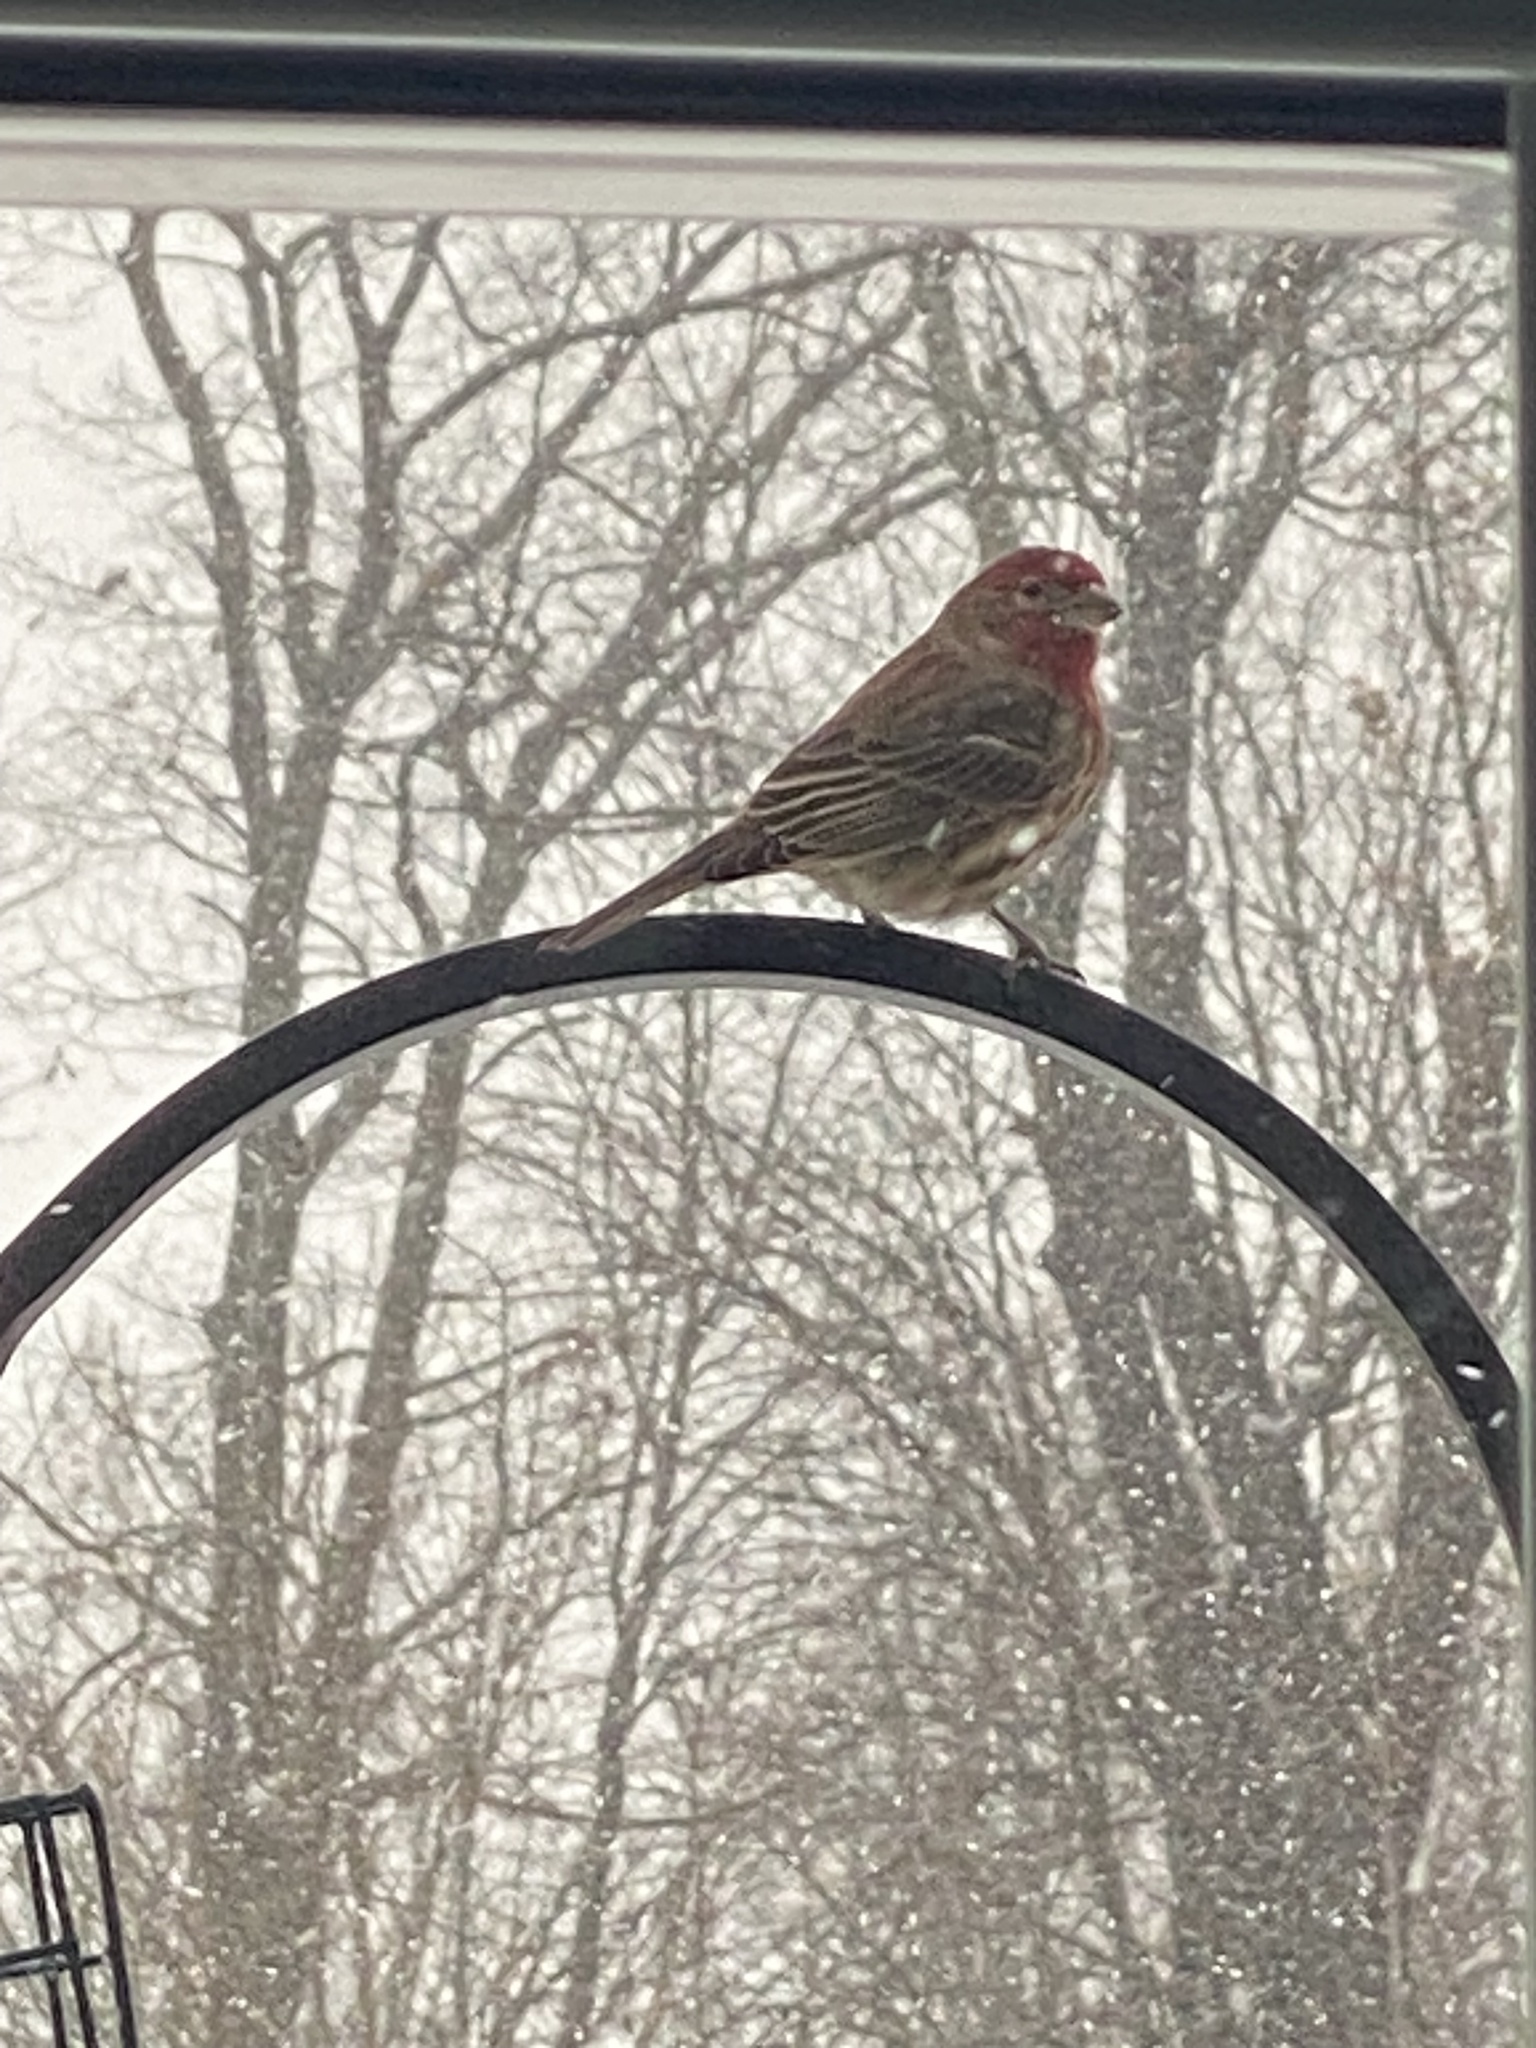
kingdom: Animalia
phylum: Chordata
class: Aves
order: Passeriformes
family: Fringillidae
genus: Haemorhous
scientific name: Haemorhous mexicanus
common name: House finch
